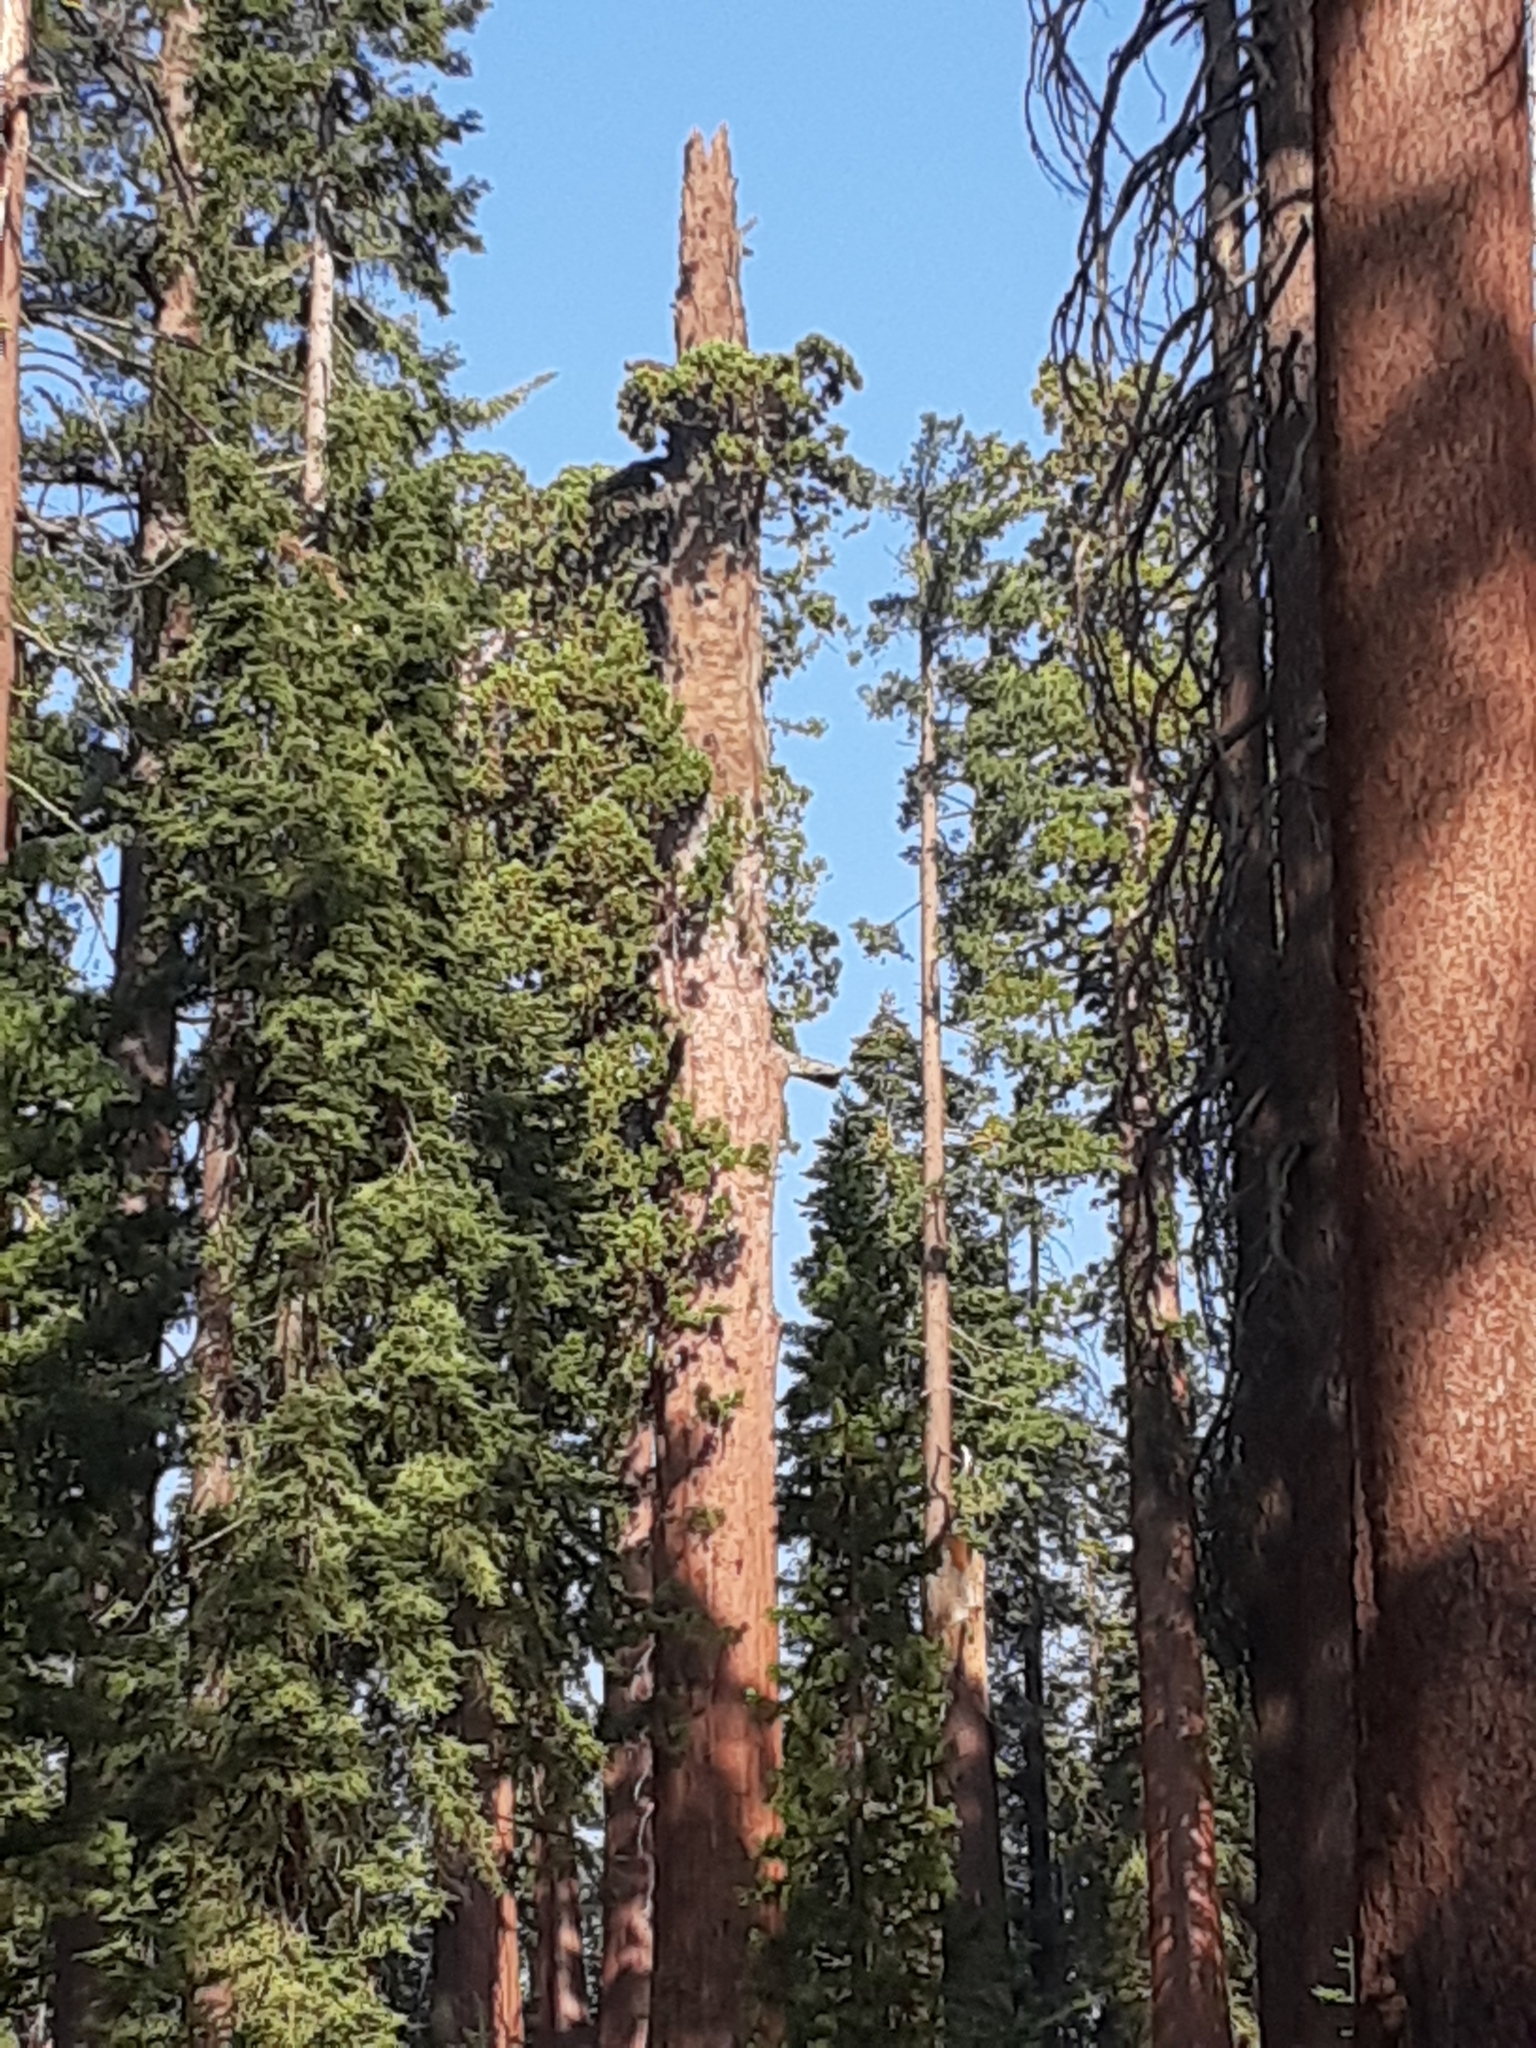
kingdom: Plantae
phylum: Tracheophyta
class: Pinopsida
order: Pinales
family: Cupressaceae
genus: Sequoiadendron
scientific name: Sequoiadendron giganteum
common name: Wellingtonia
